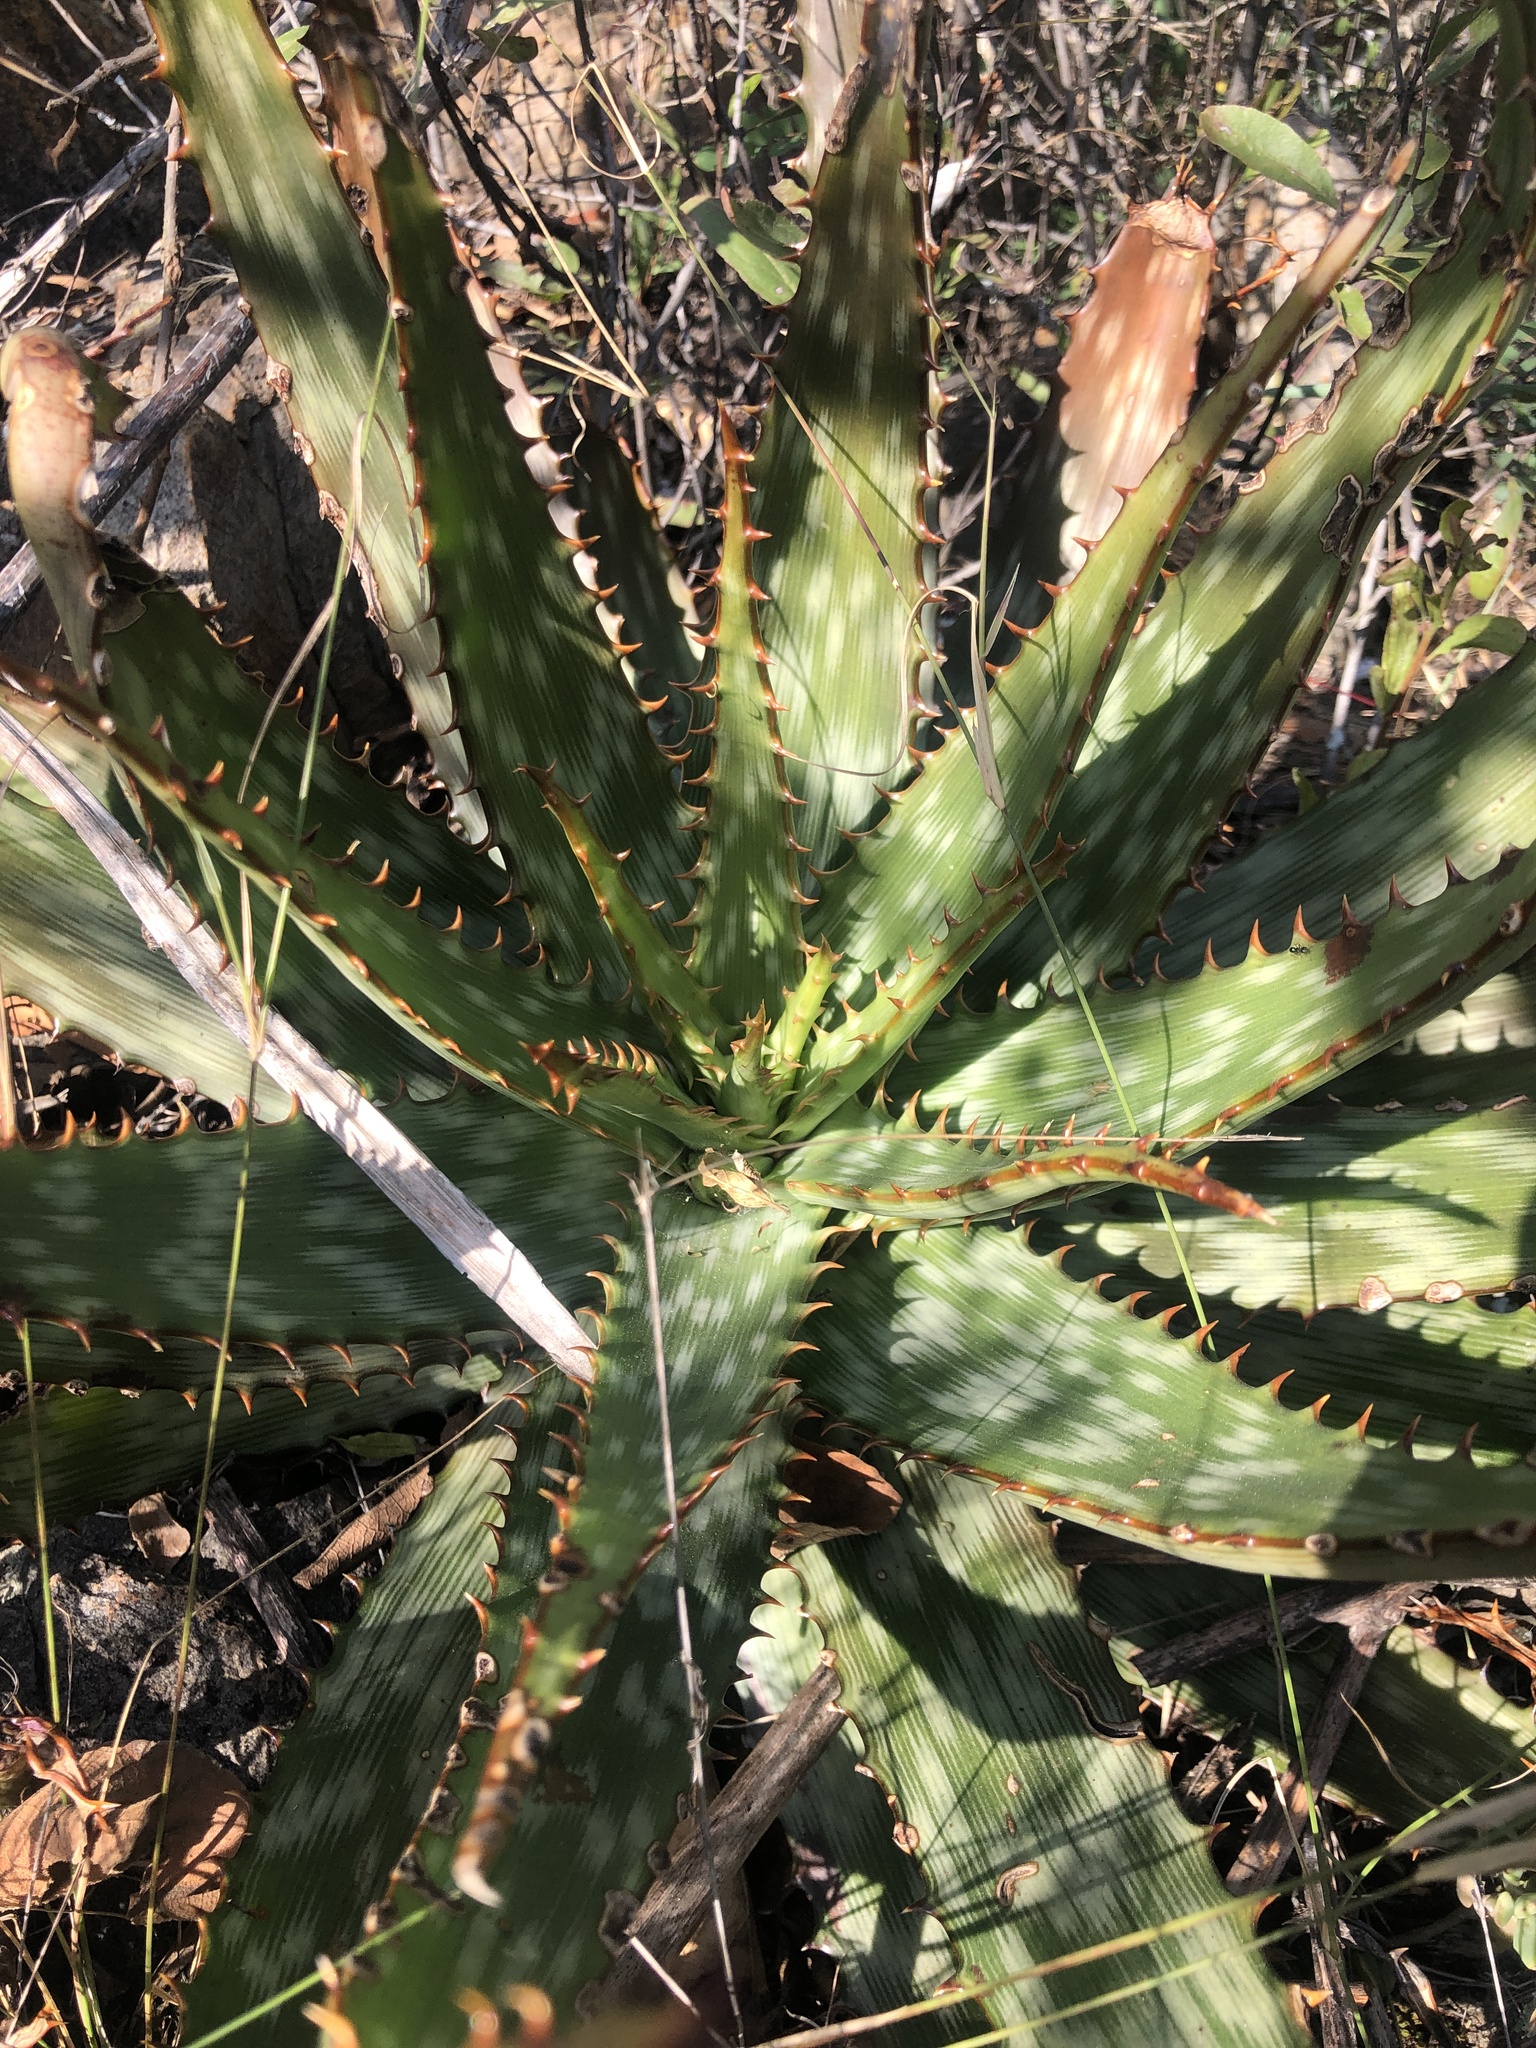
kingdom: Plantae
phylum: Tracheophyta
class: Liliopsida
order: Asparagales
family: Asphodelaceae
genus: Aloe
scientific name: Aloe davyana
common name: Spotted aloe
